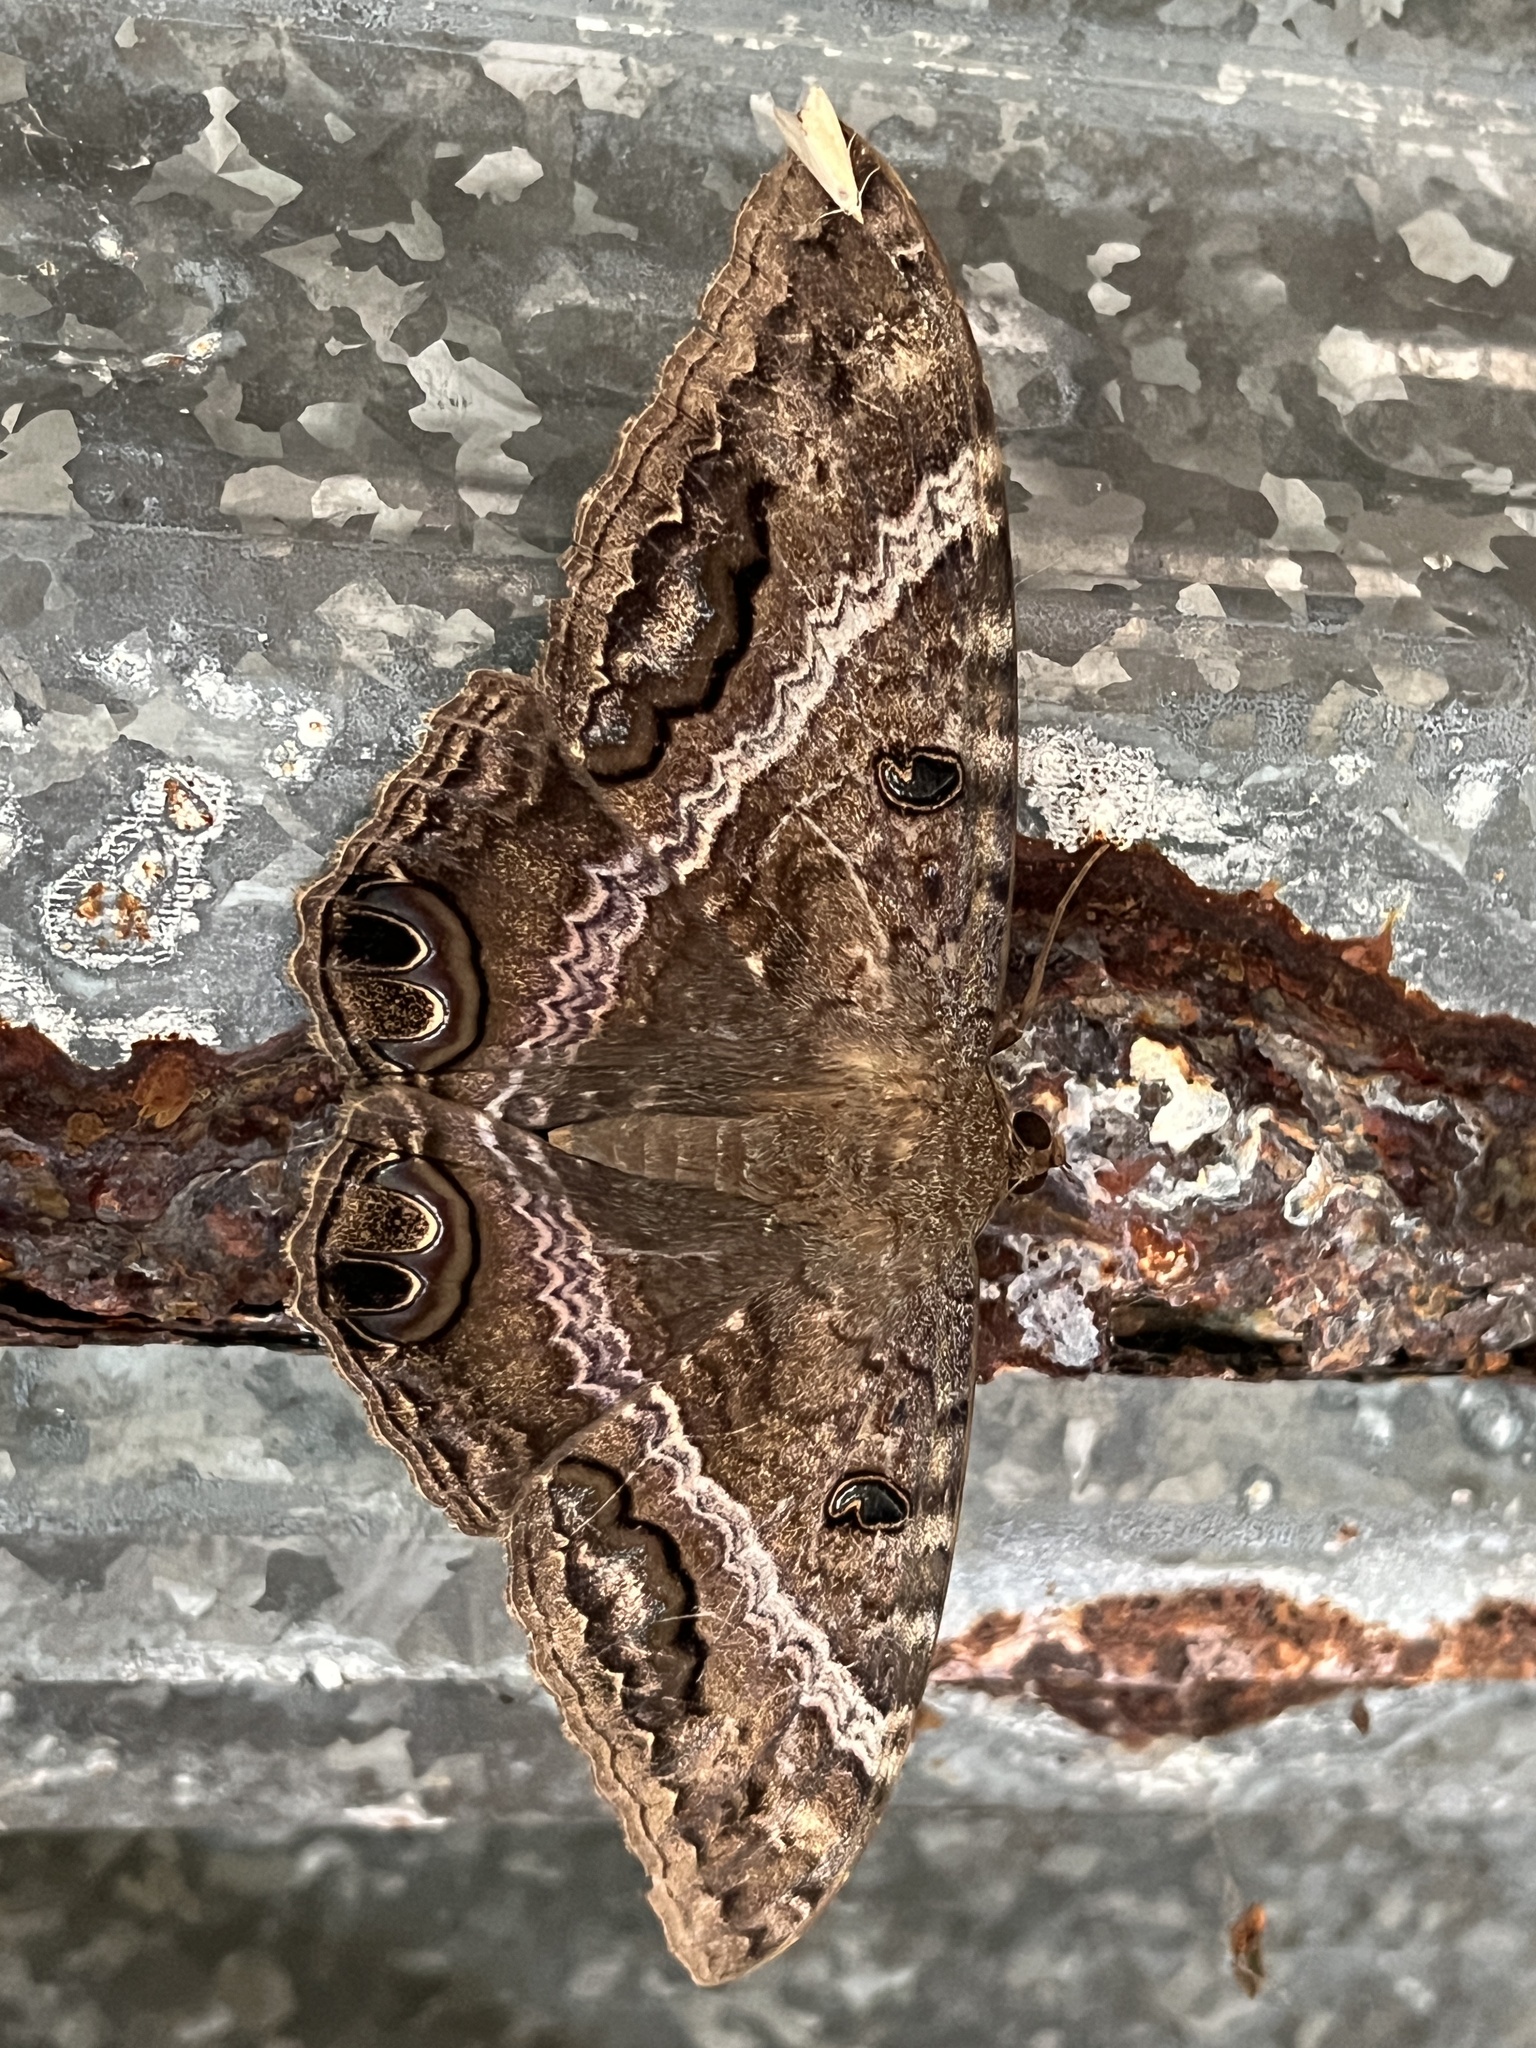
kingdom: Animalia
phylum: Arthropoda
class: Insecta
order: Lepidoptera
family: Erebidae
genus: Ascalapha
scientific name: Ascalapha odorata
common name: Black witch
